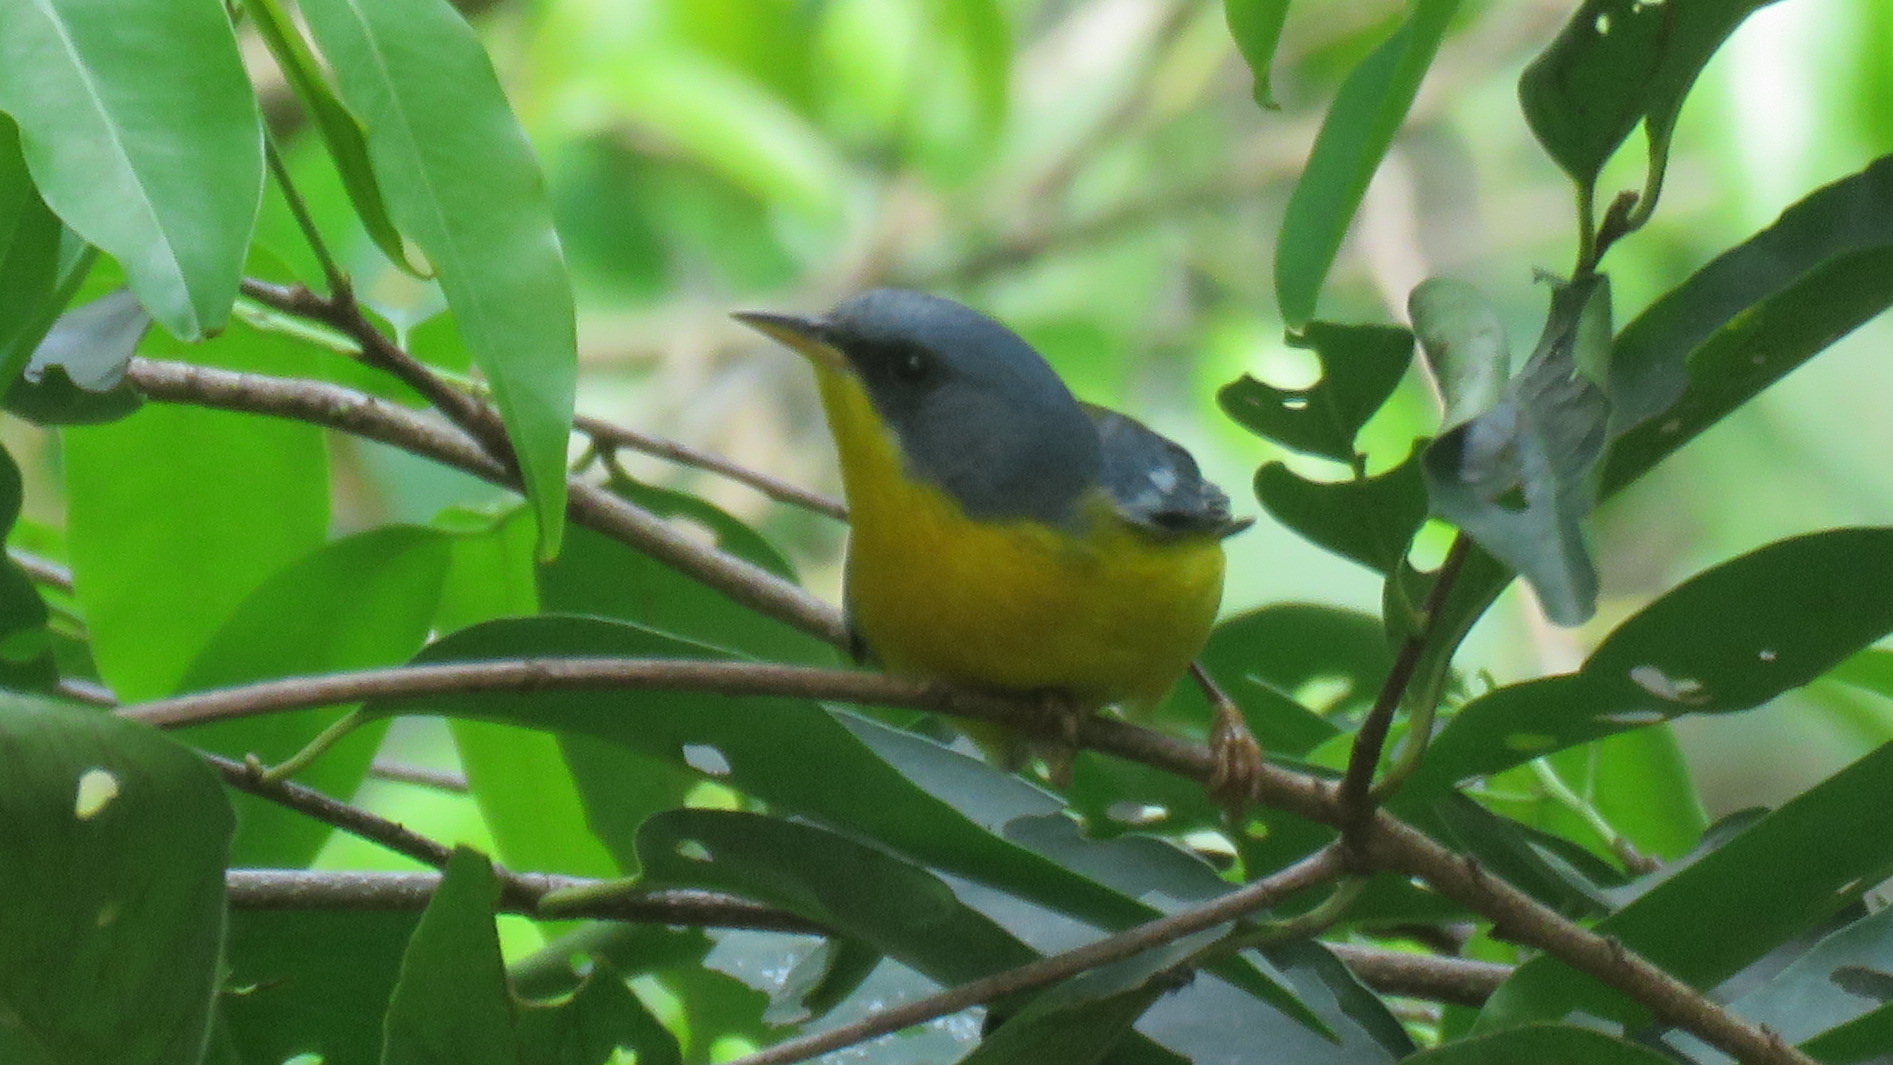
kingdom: Animalia
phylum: Chordata
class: Aves
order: Passeriformes
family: Parulidae
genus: Setophaga
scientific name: Setophaga pitiayumi
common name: Tropical parula
